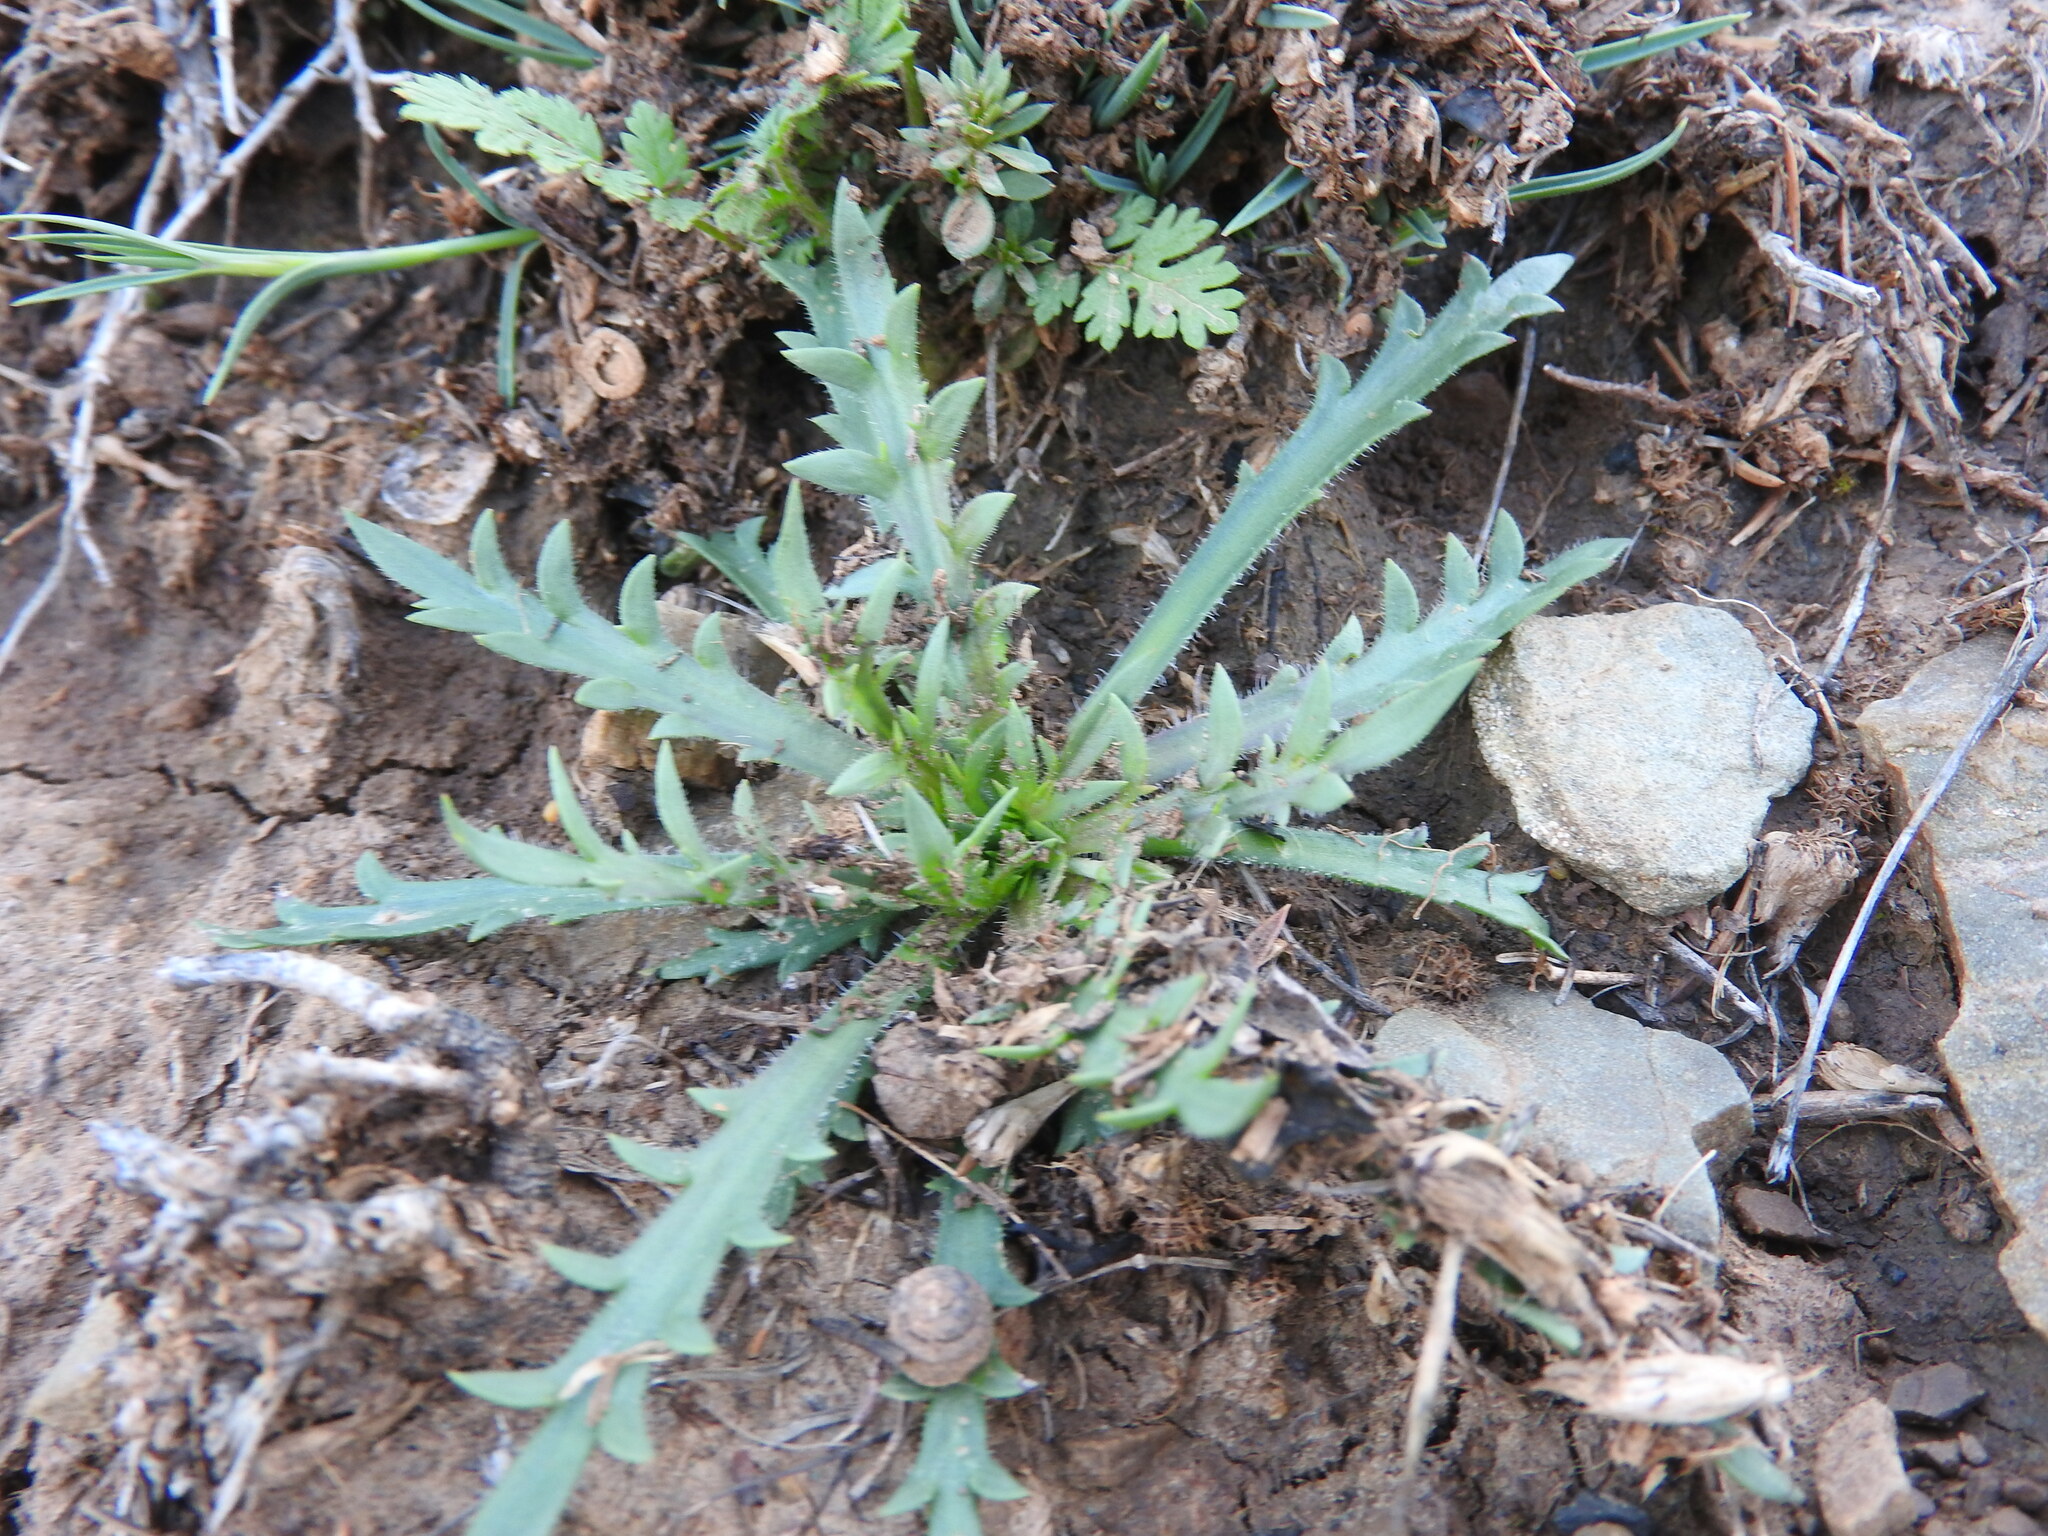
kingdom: Plantae
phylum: Tracheophyta
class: Magnoliopsida
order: Lamiales
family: Plantaginaceae
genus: Plantago
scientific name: Plantago coronopus
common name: Buck's-horn plantain
